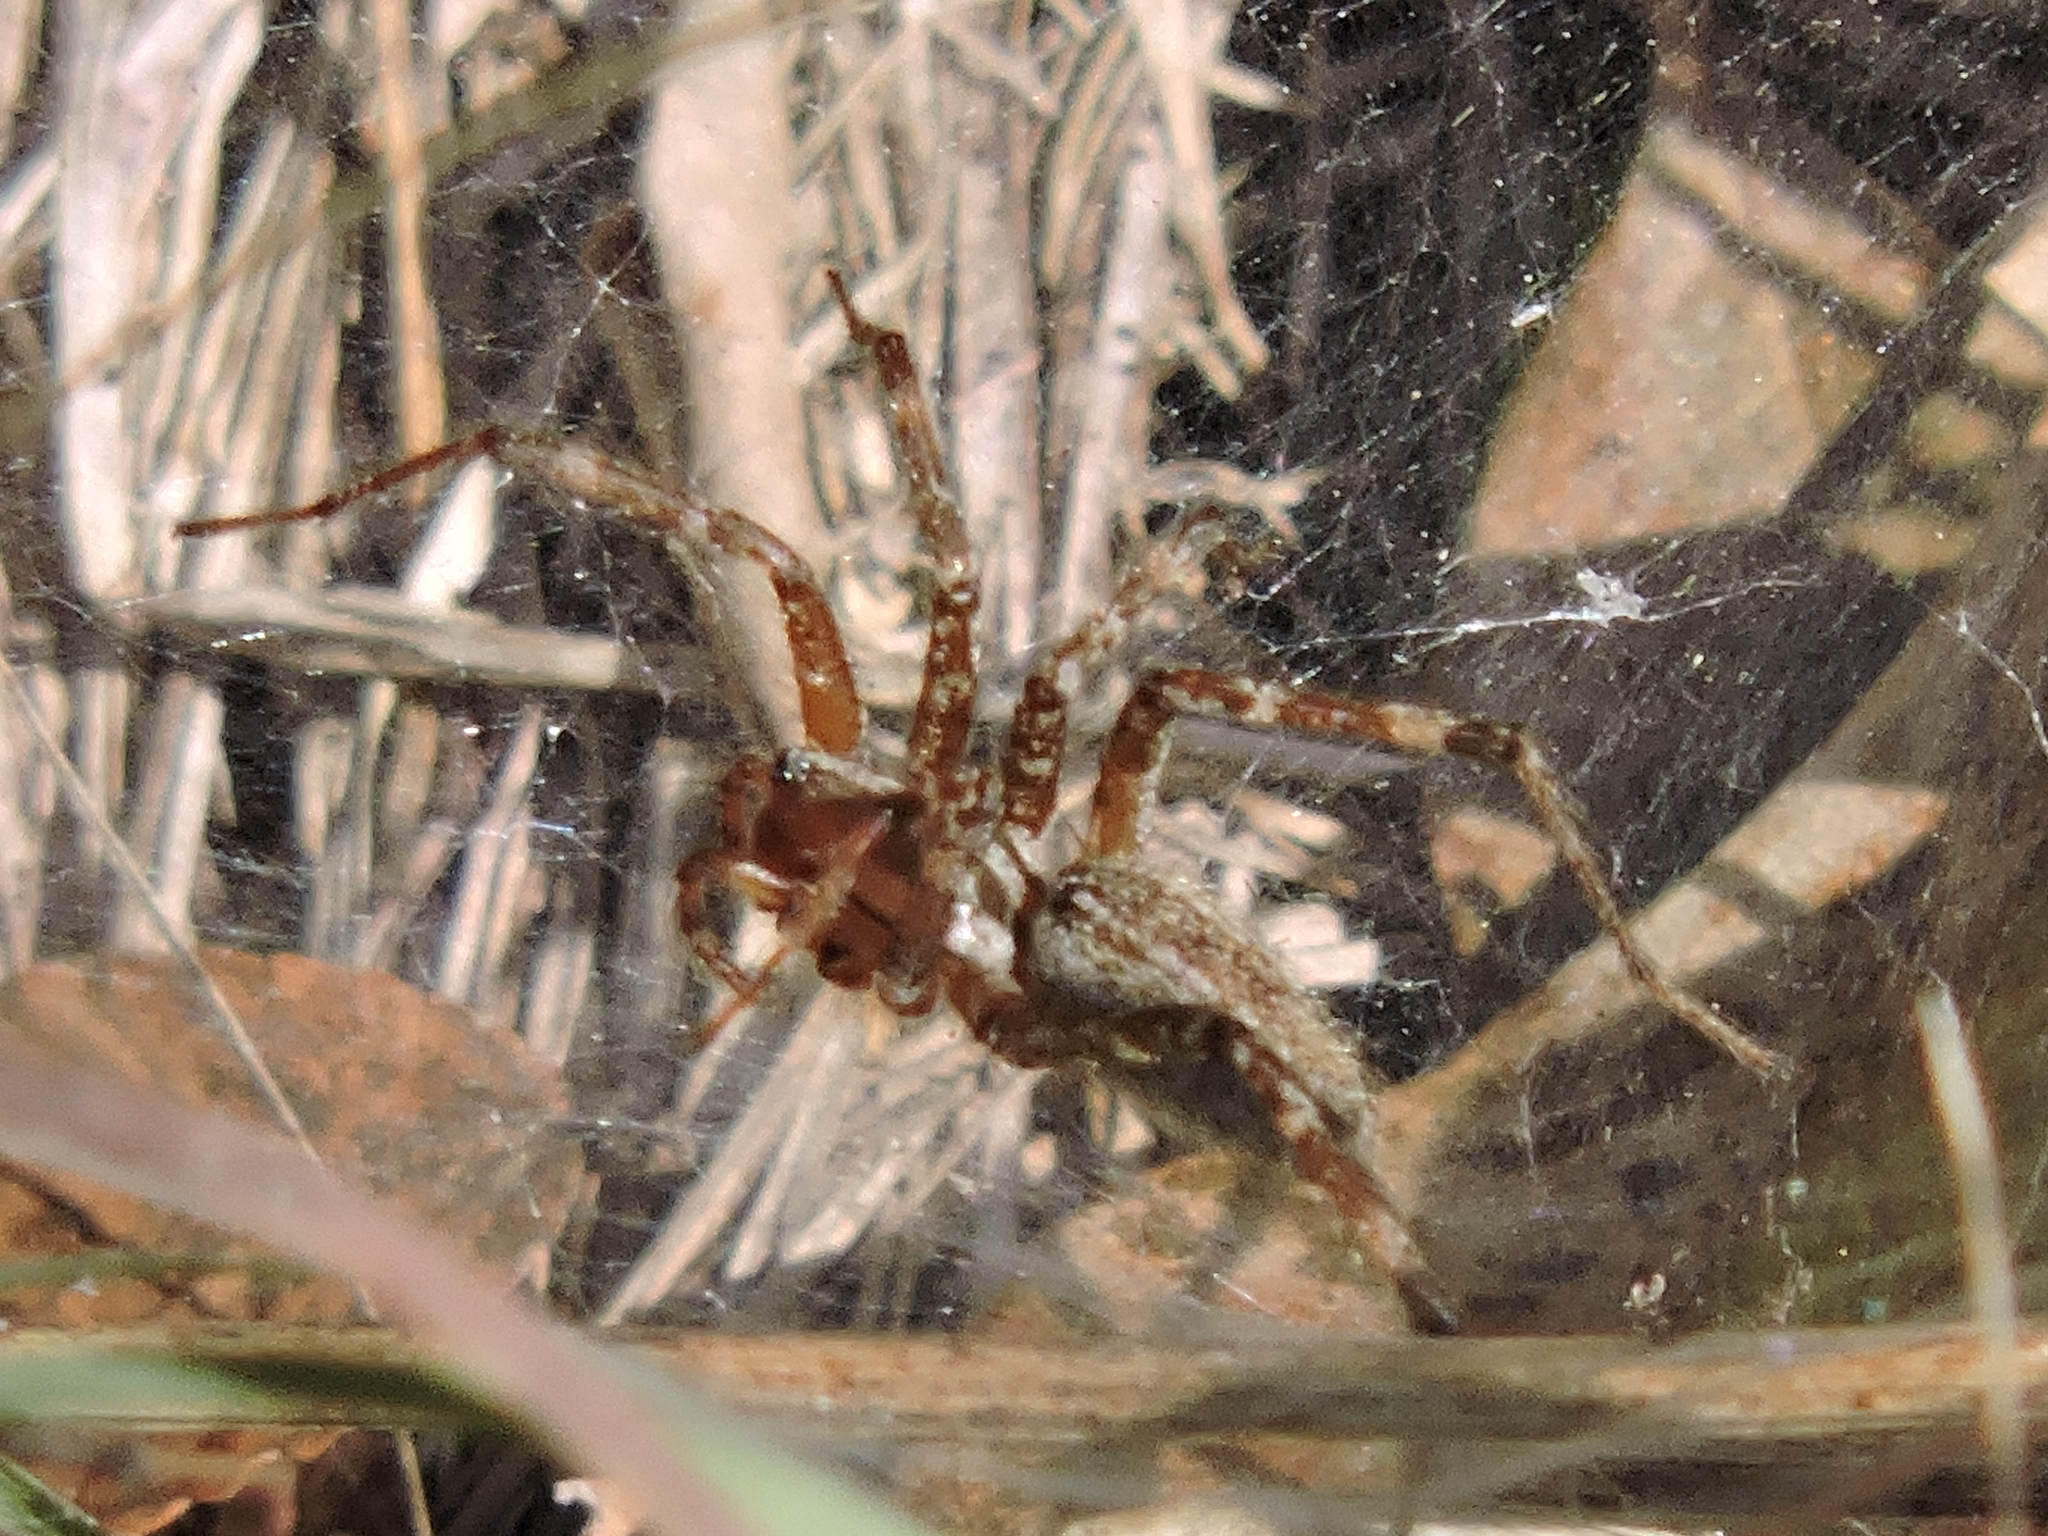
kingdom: Animalia
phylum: Arthropoda
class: Arachnida
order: Araneae
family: Agelenidae
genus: Agelenopsis
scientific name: Agelenopsis
